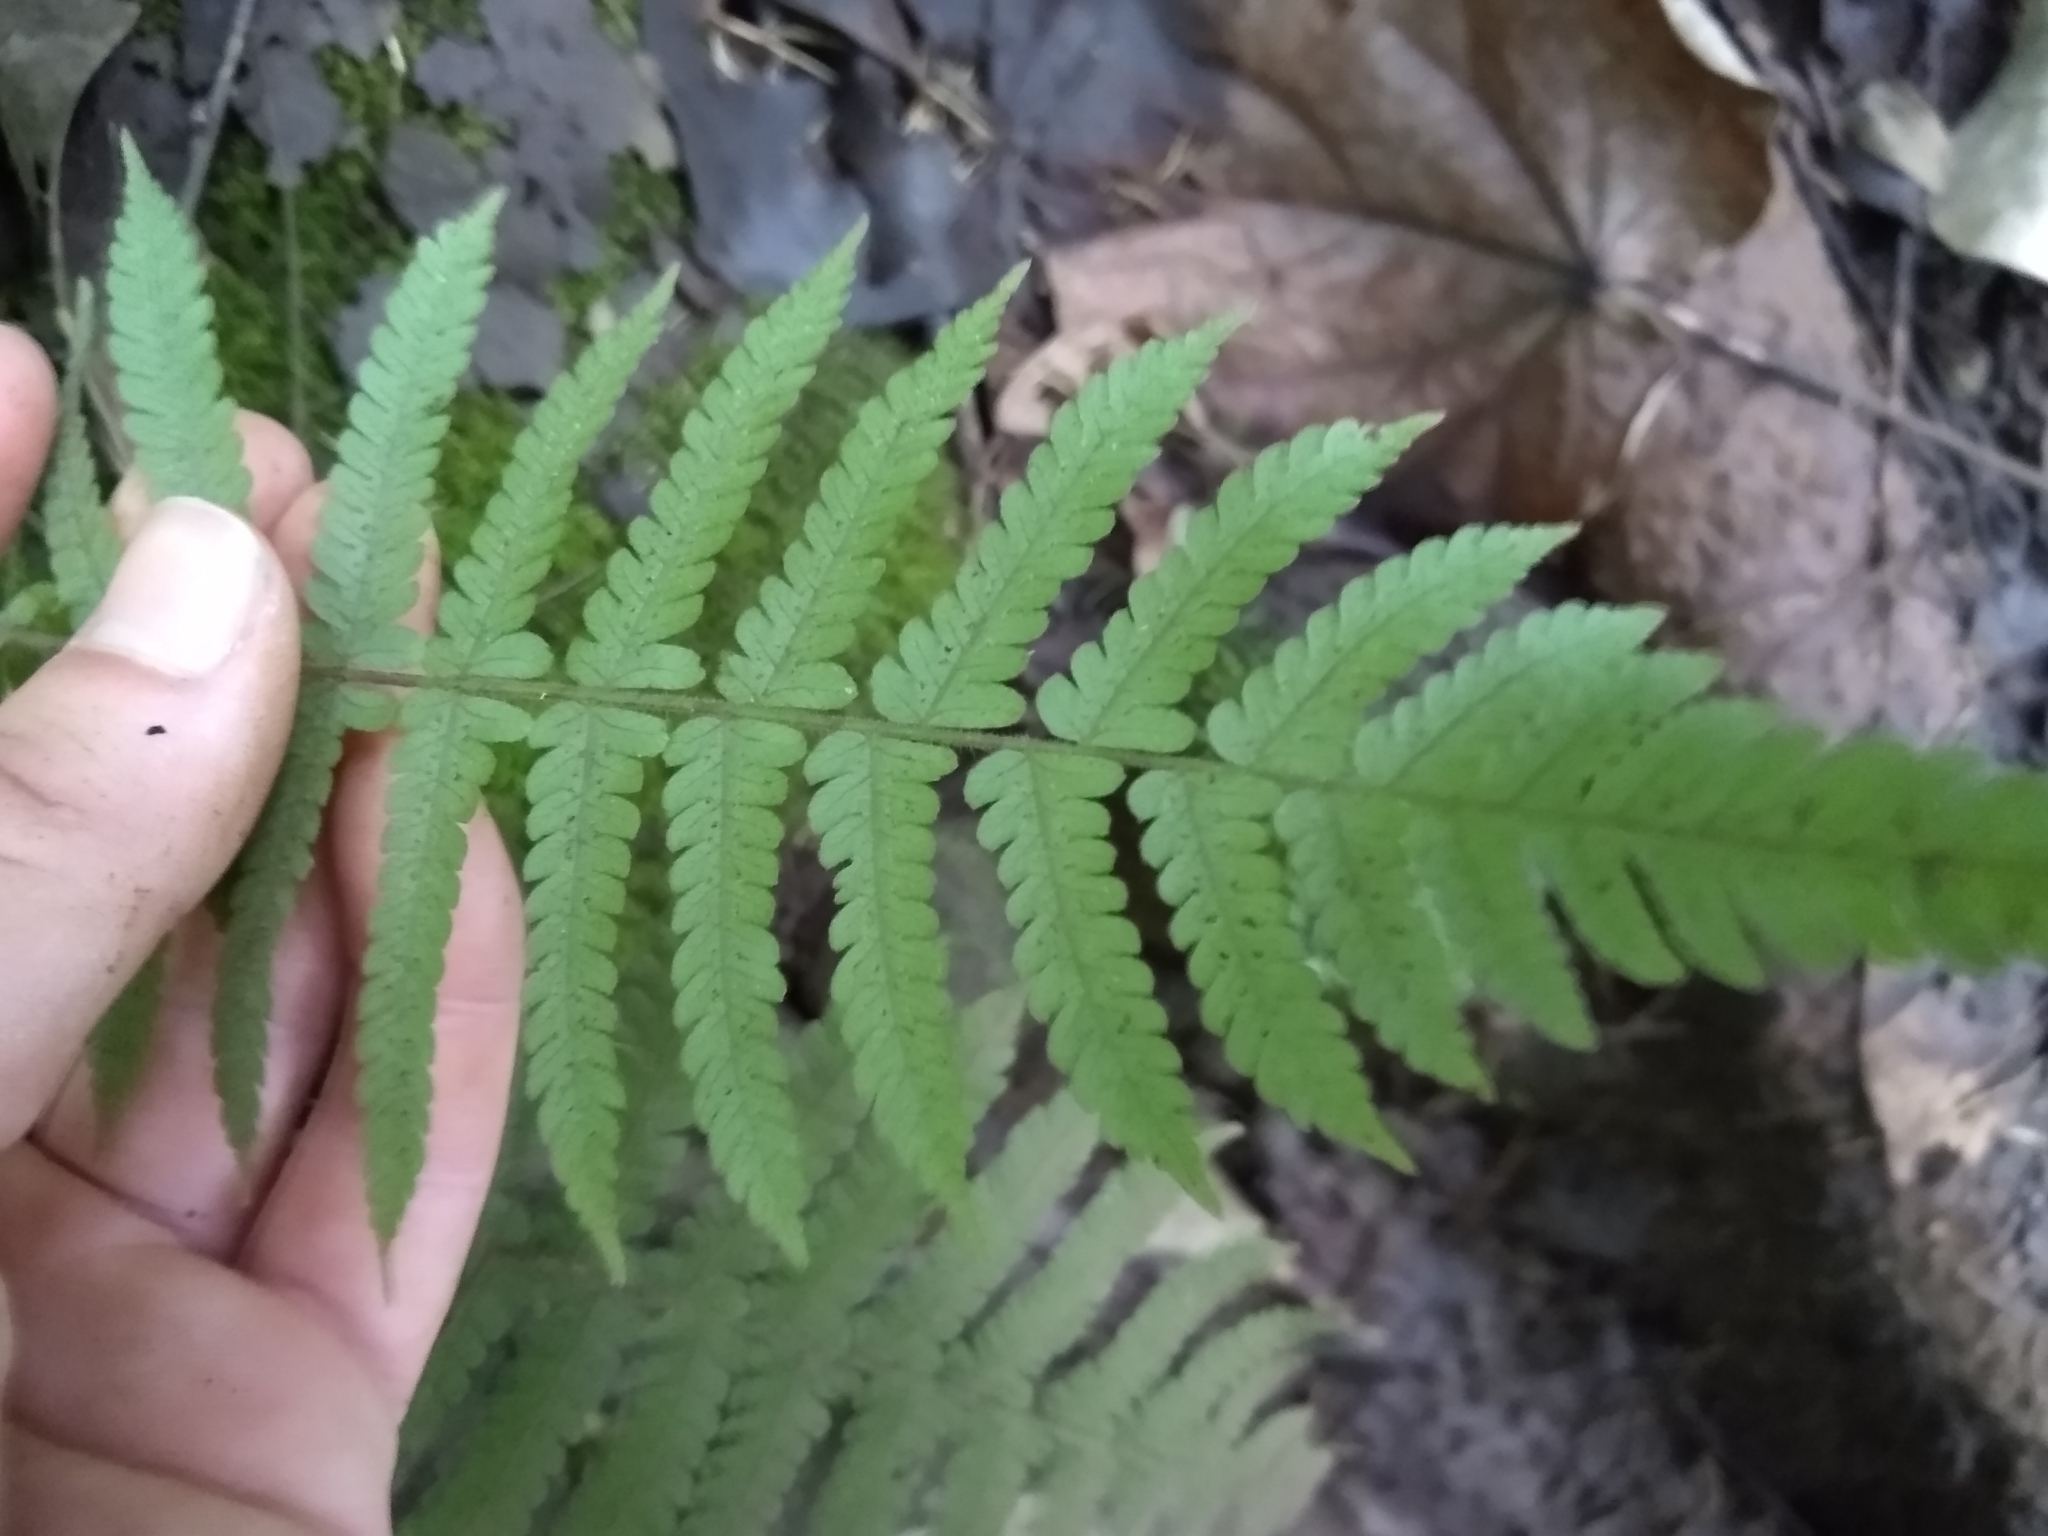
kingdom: Plantae
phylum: Tracheophyta
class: Polypodiopsida
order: Polypodiales
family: Thelypteridaceae
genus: Christella
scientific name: Christella parasitica
